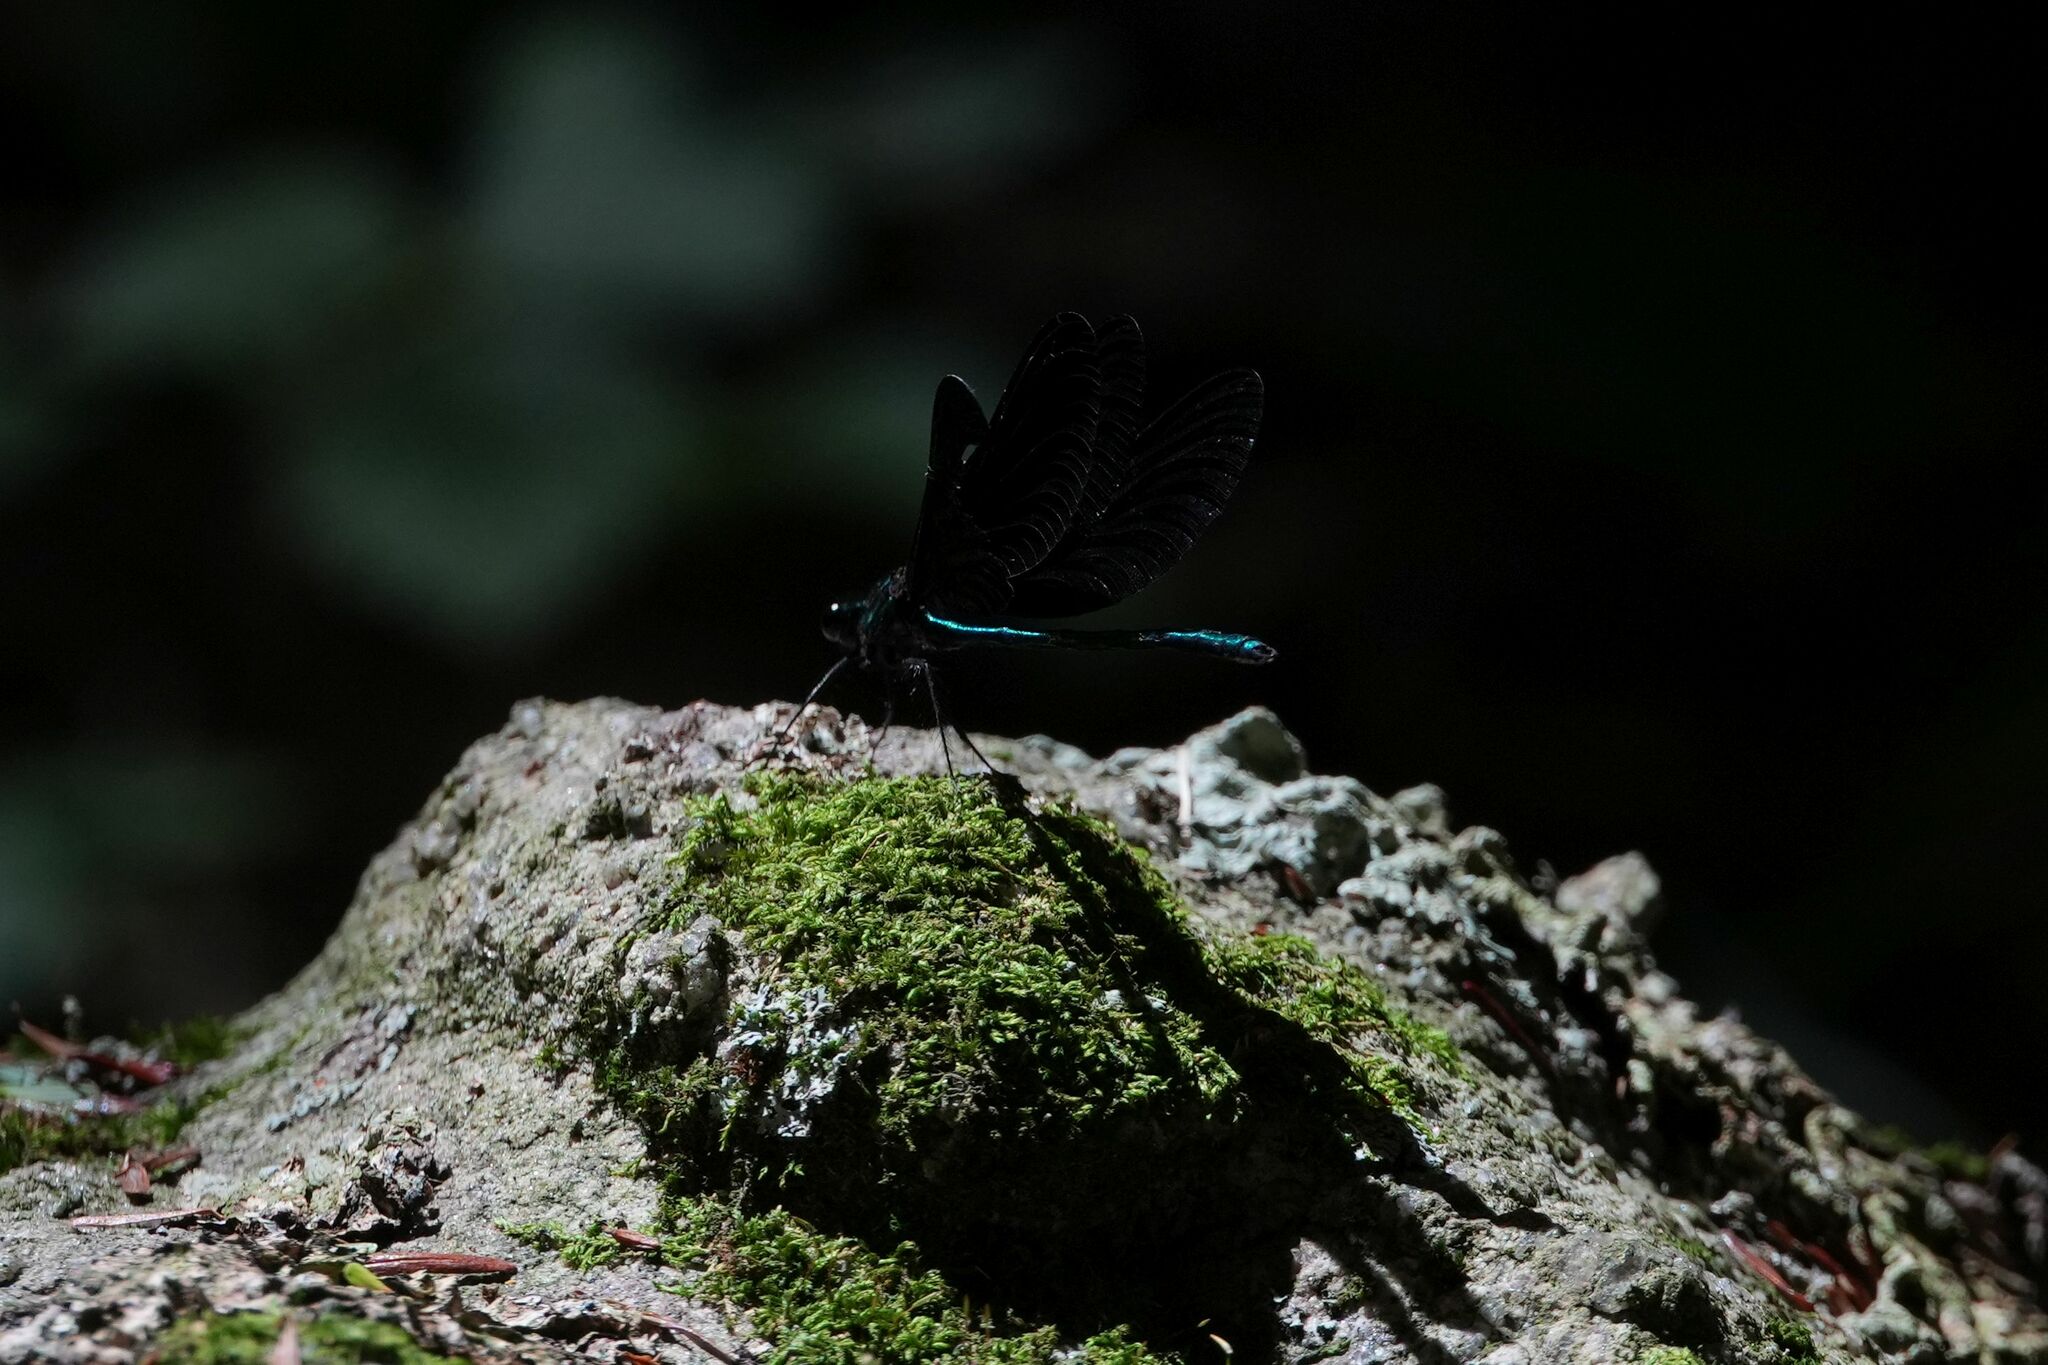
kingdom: Animalia
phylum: Arthropoda
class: Insecta
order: Odonata
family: Calopterygidae
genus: Calopteryx
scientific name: Calopteryx maculata
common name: Ebony jewelwing
